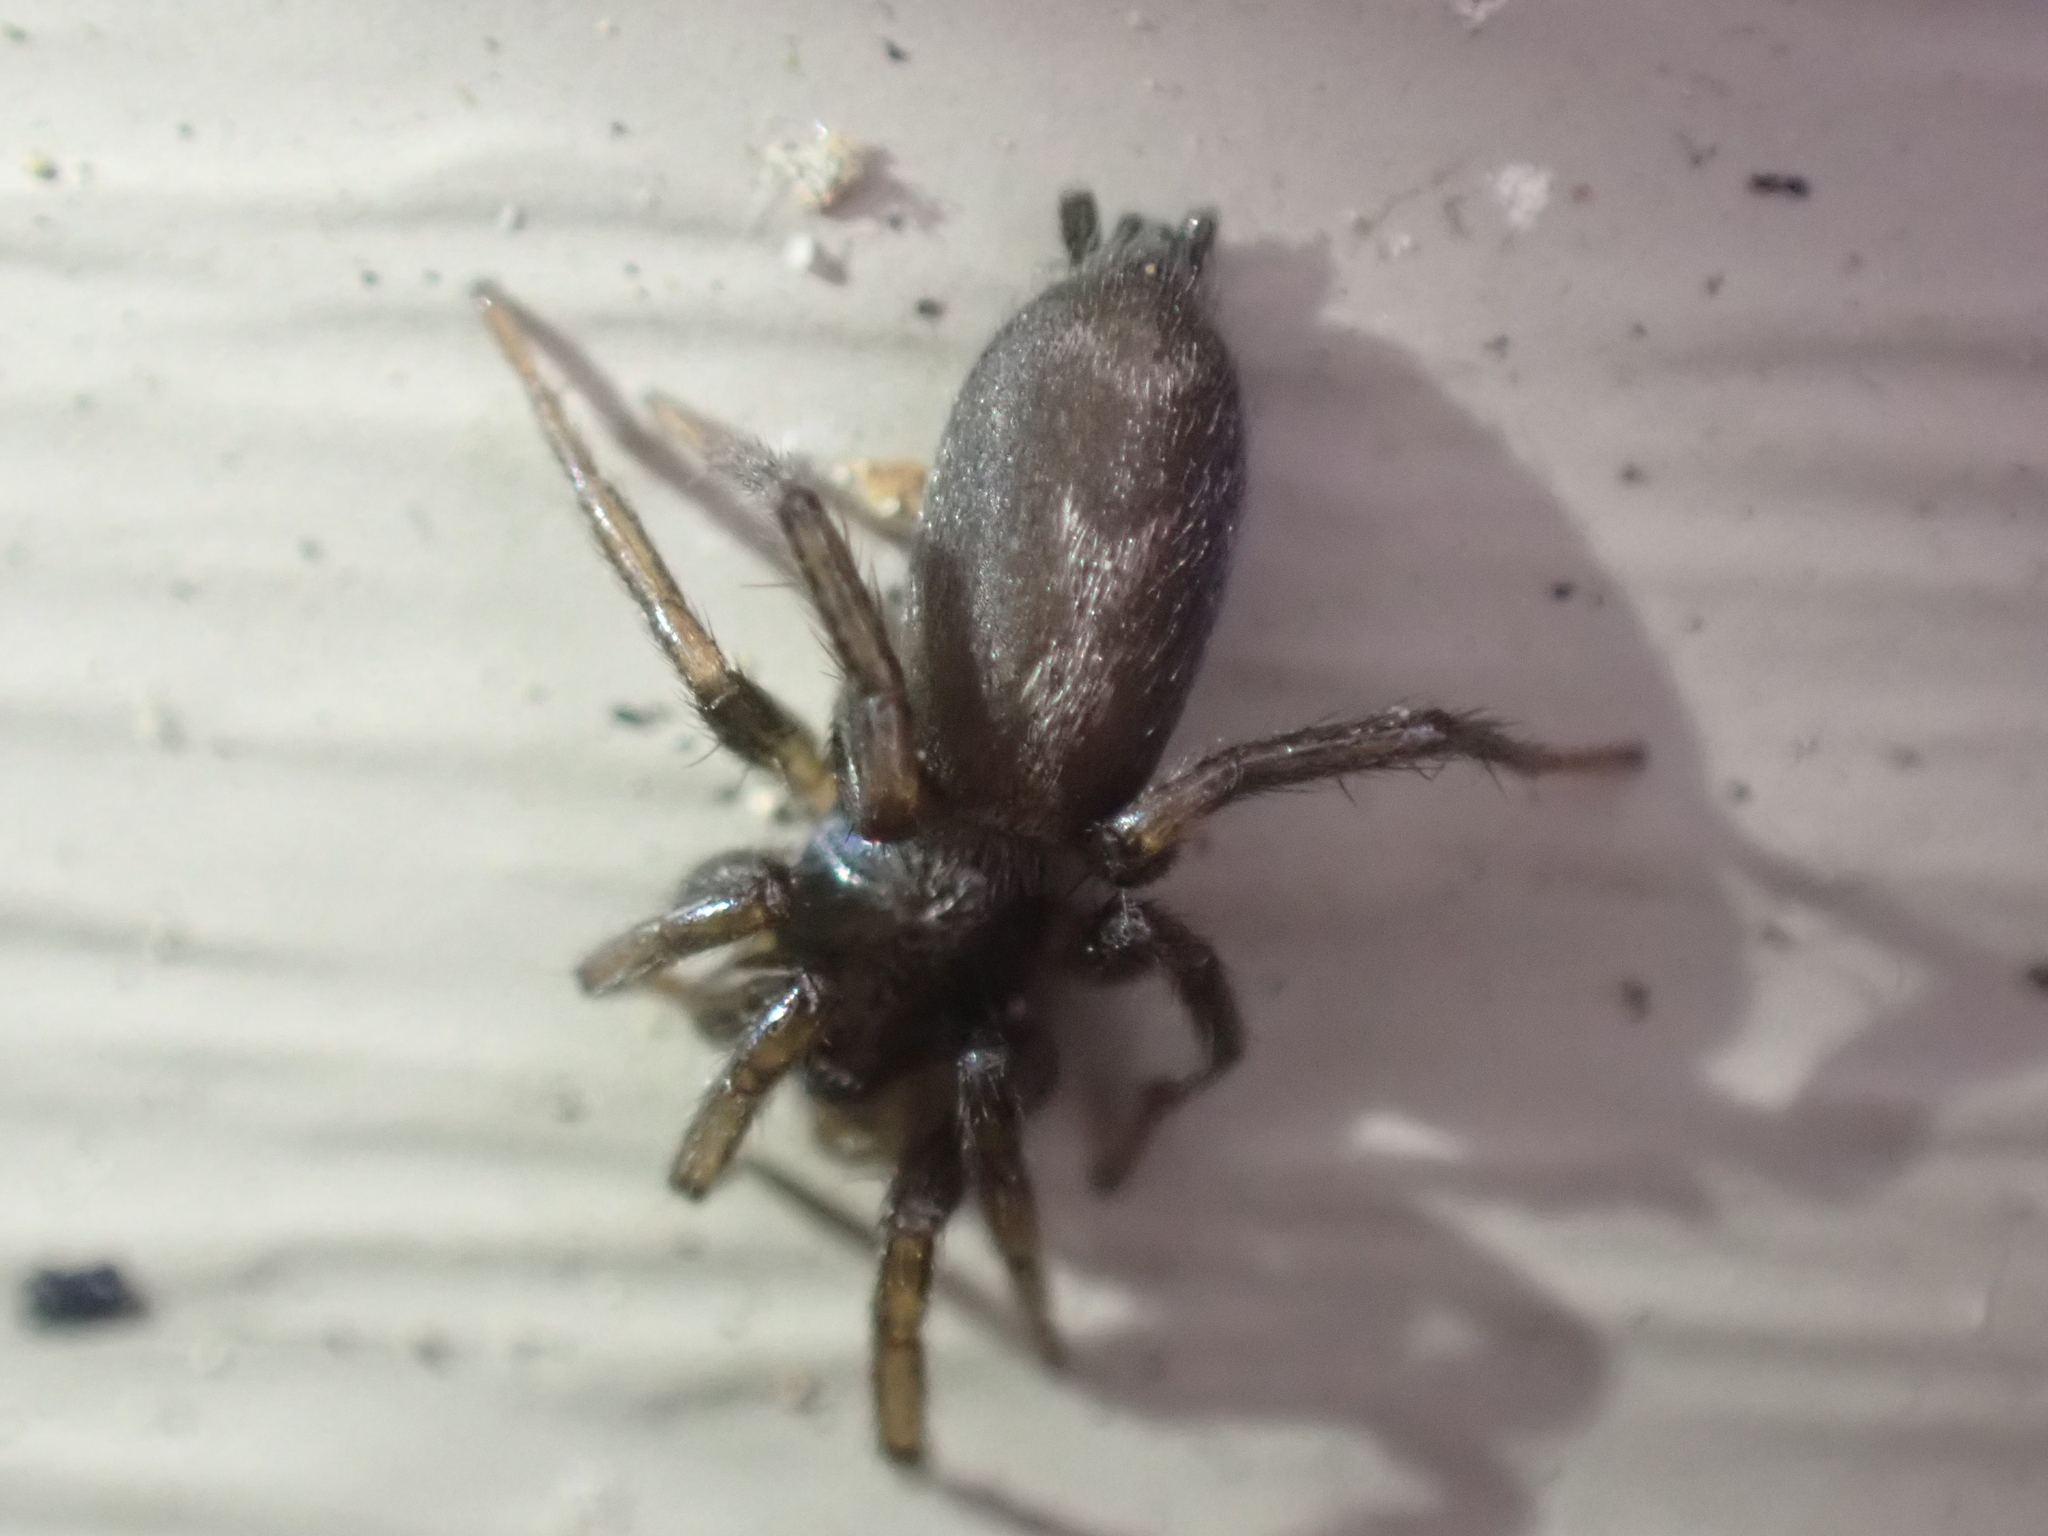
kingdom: Animalia
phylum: Arthropoda
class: Arachnida
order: Araneae
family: Gnaphosidae
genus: Herpyllus
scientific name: Herpyllus ecclesiasticus
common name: Eastern parson spider
